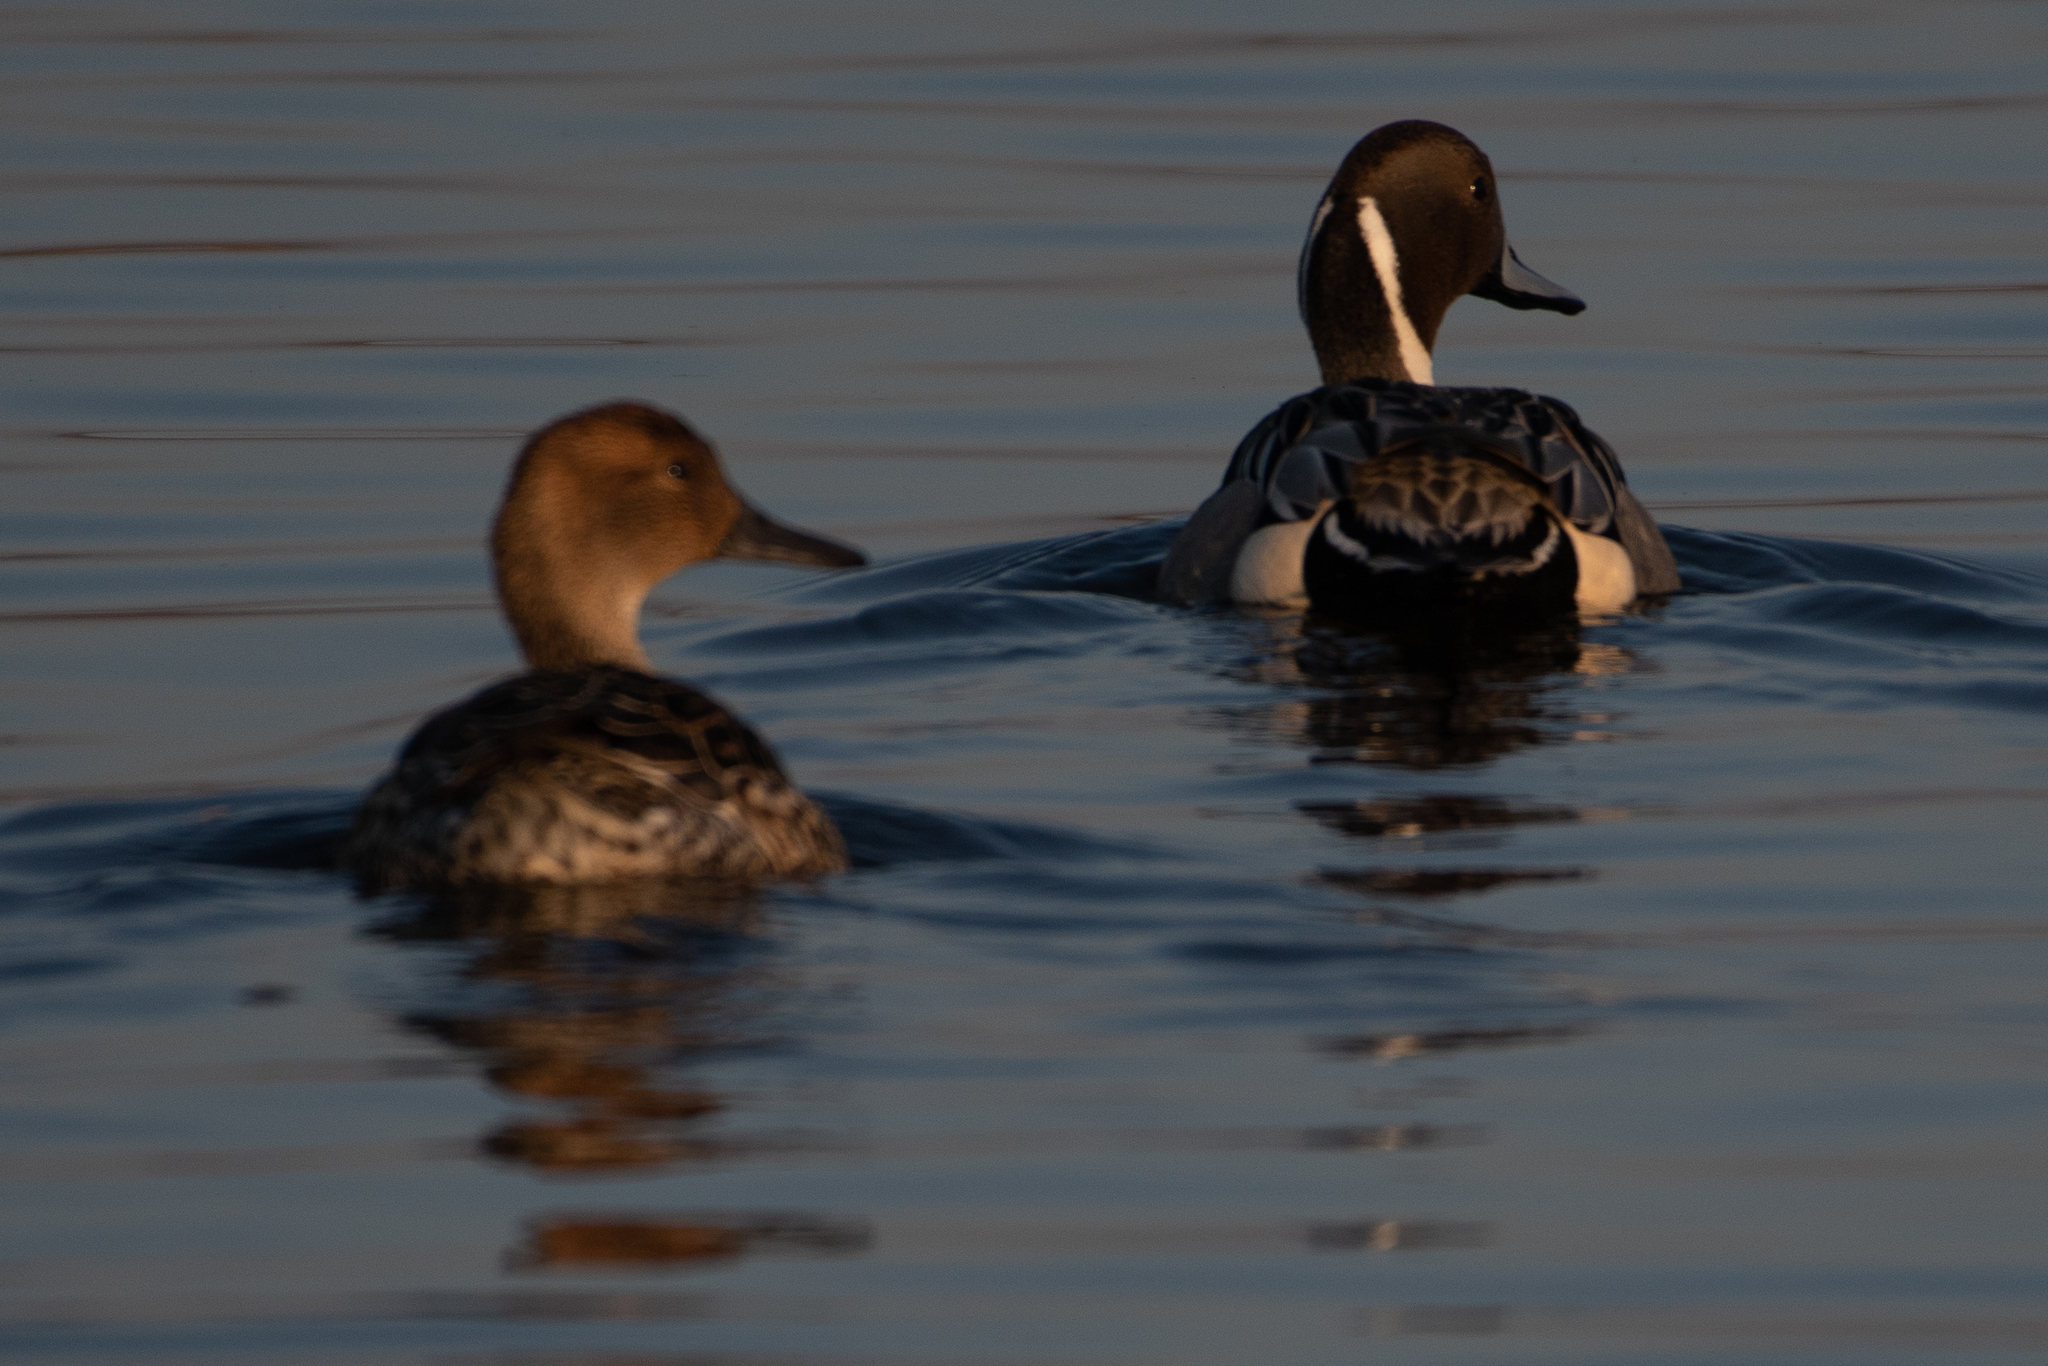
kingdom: Animalia
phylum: Chordata
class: Aves
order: Anseriformes
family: Anatidae
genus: Anas
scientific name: Anas acuta
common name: Northern pintail
